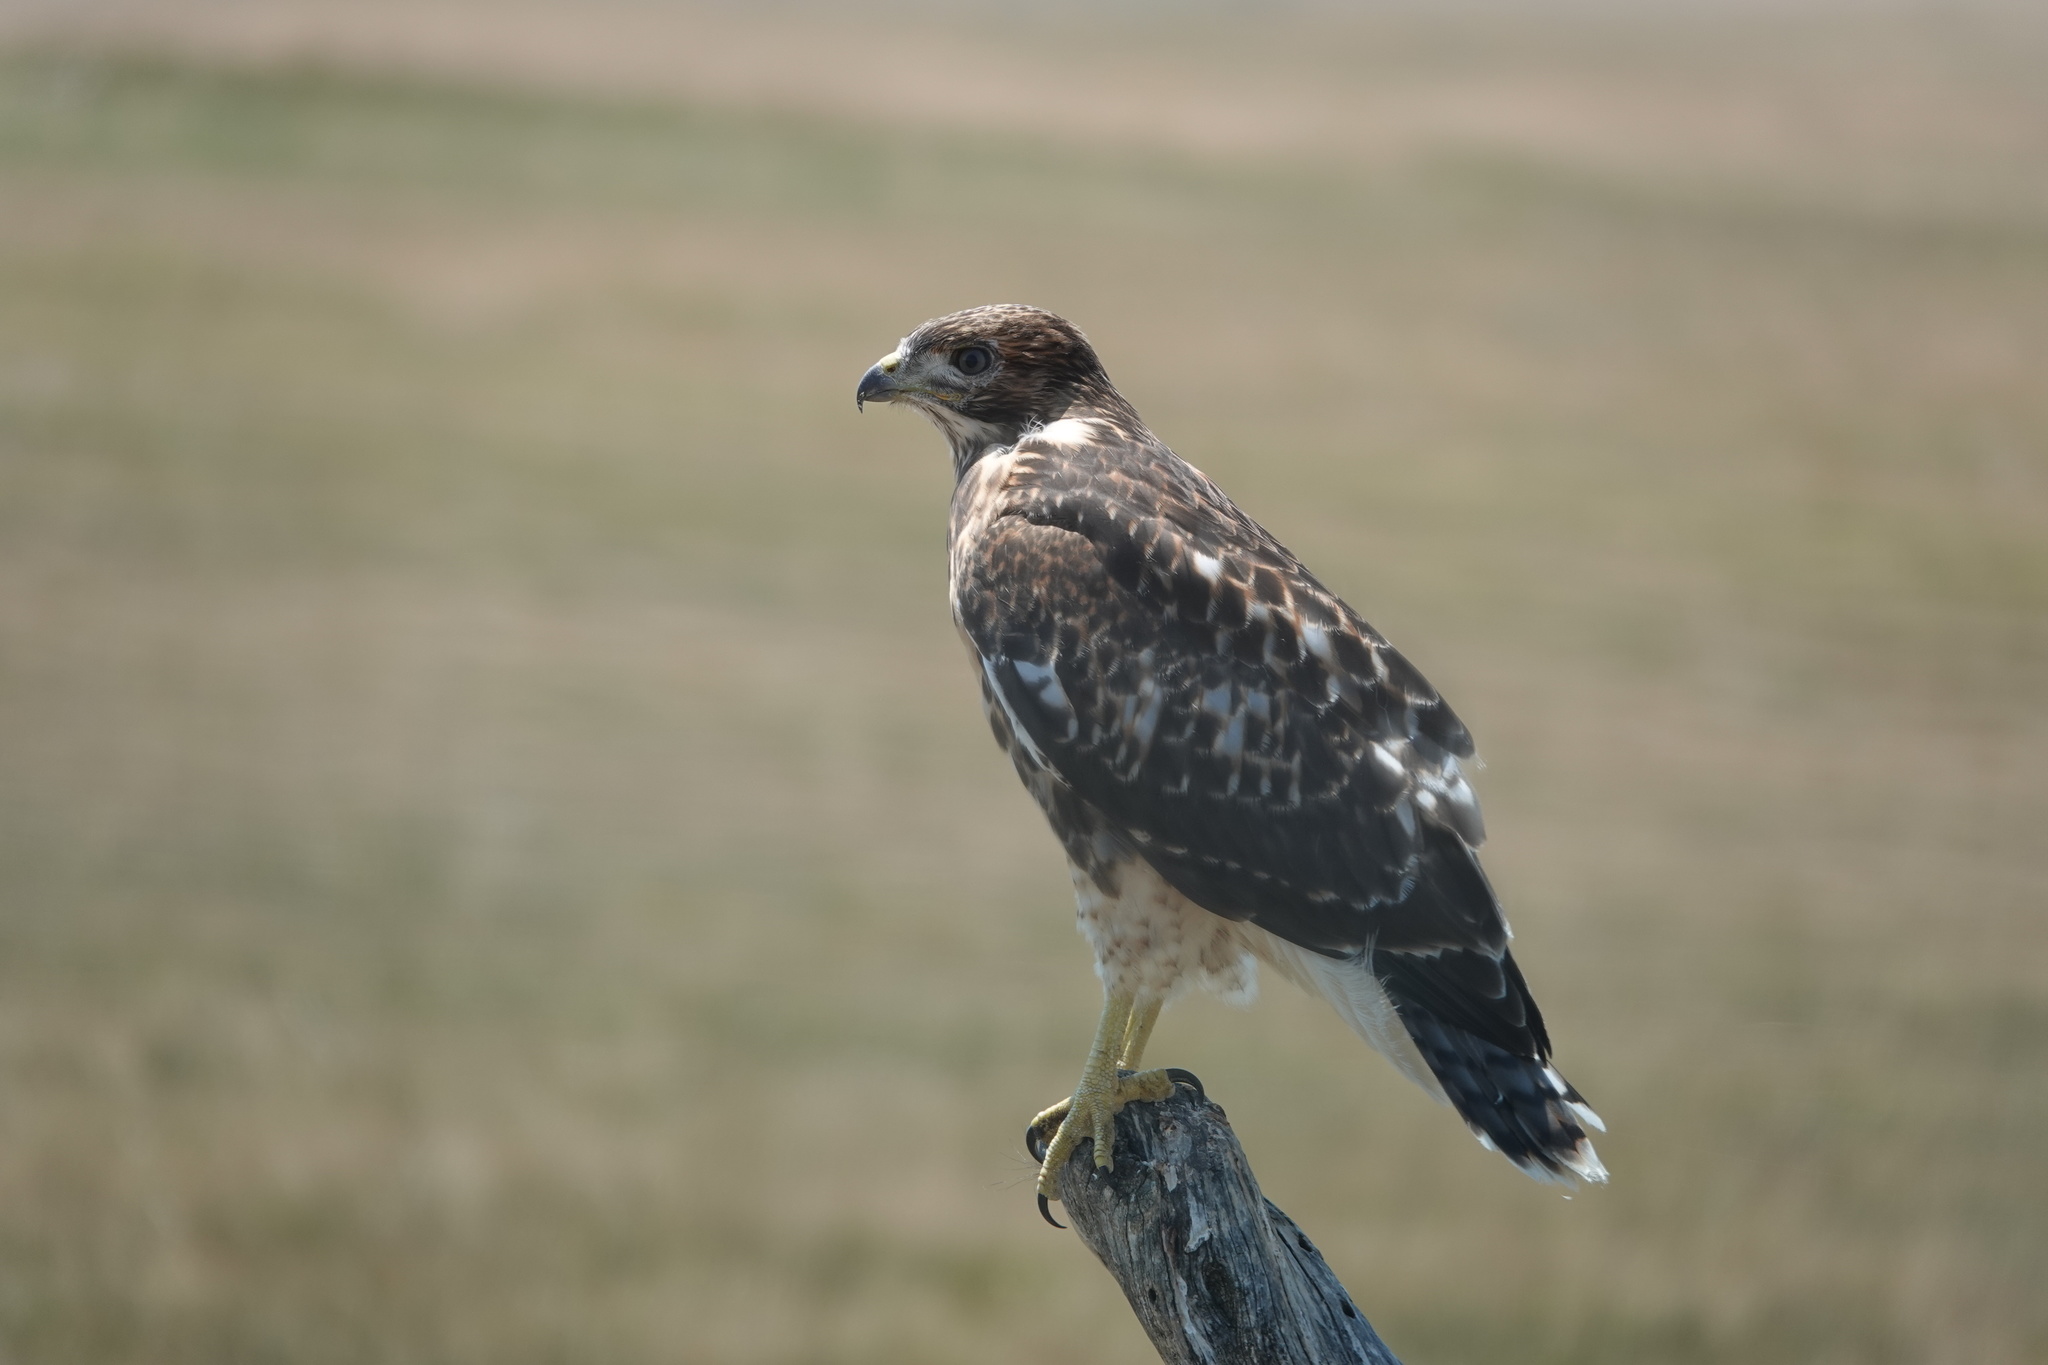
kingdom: Animalia
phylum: Chordata
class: Aves
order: Accipitriformes
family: Accipitridae
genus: Buteo
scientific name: Buteo jamaicensis
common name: Red-tailed hawk
